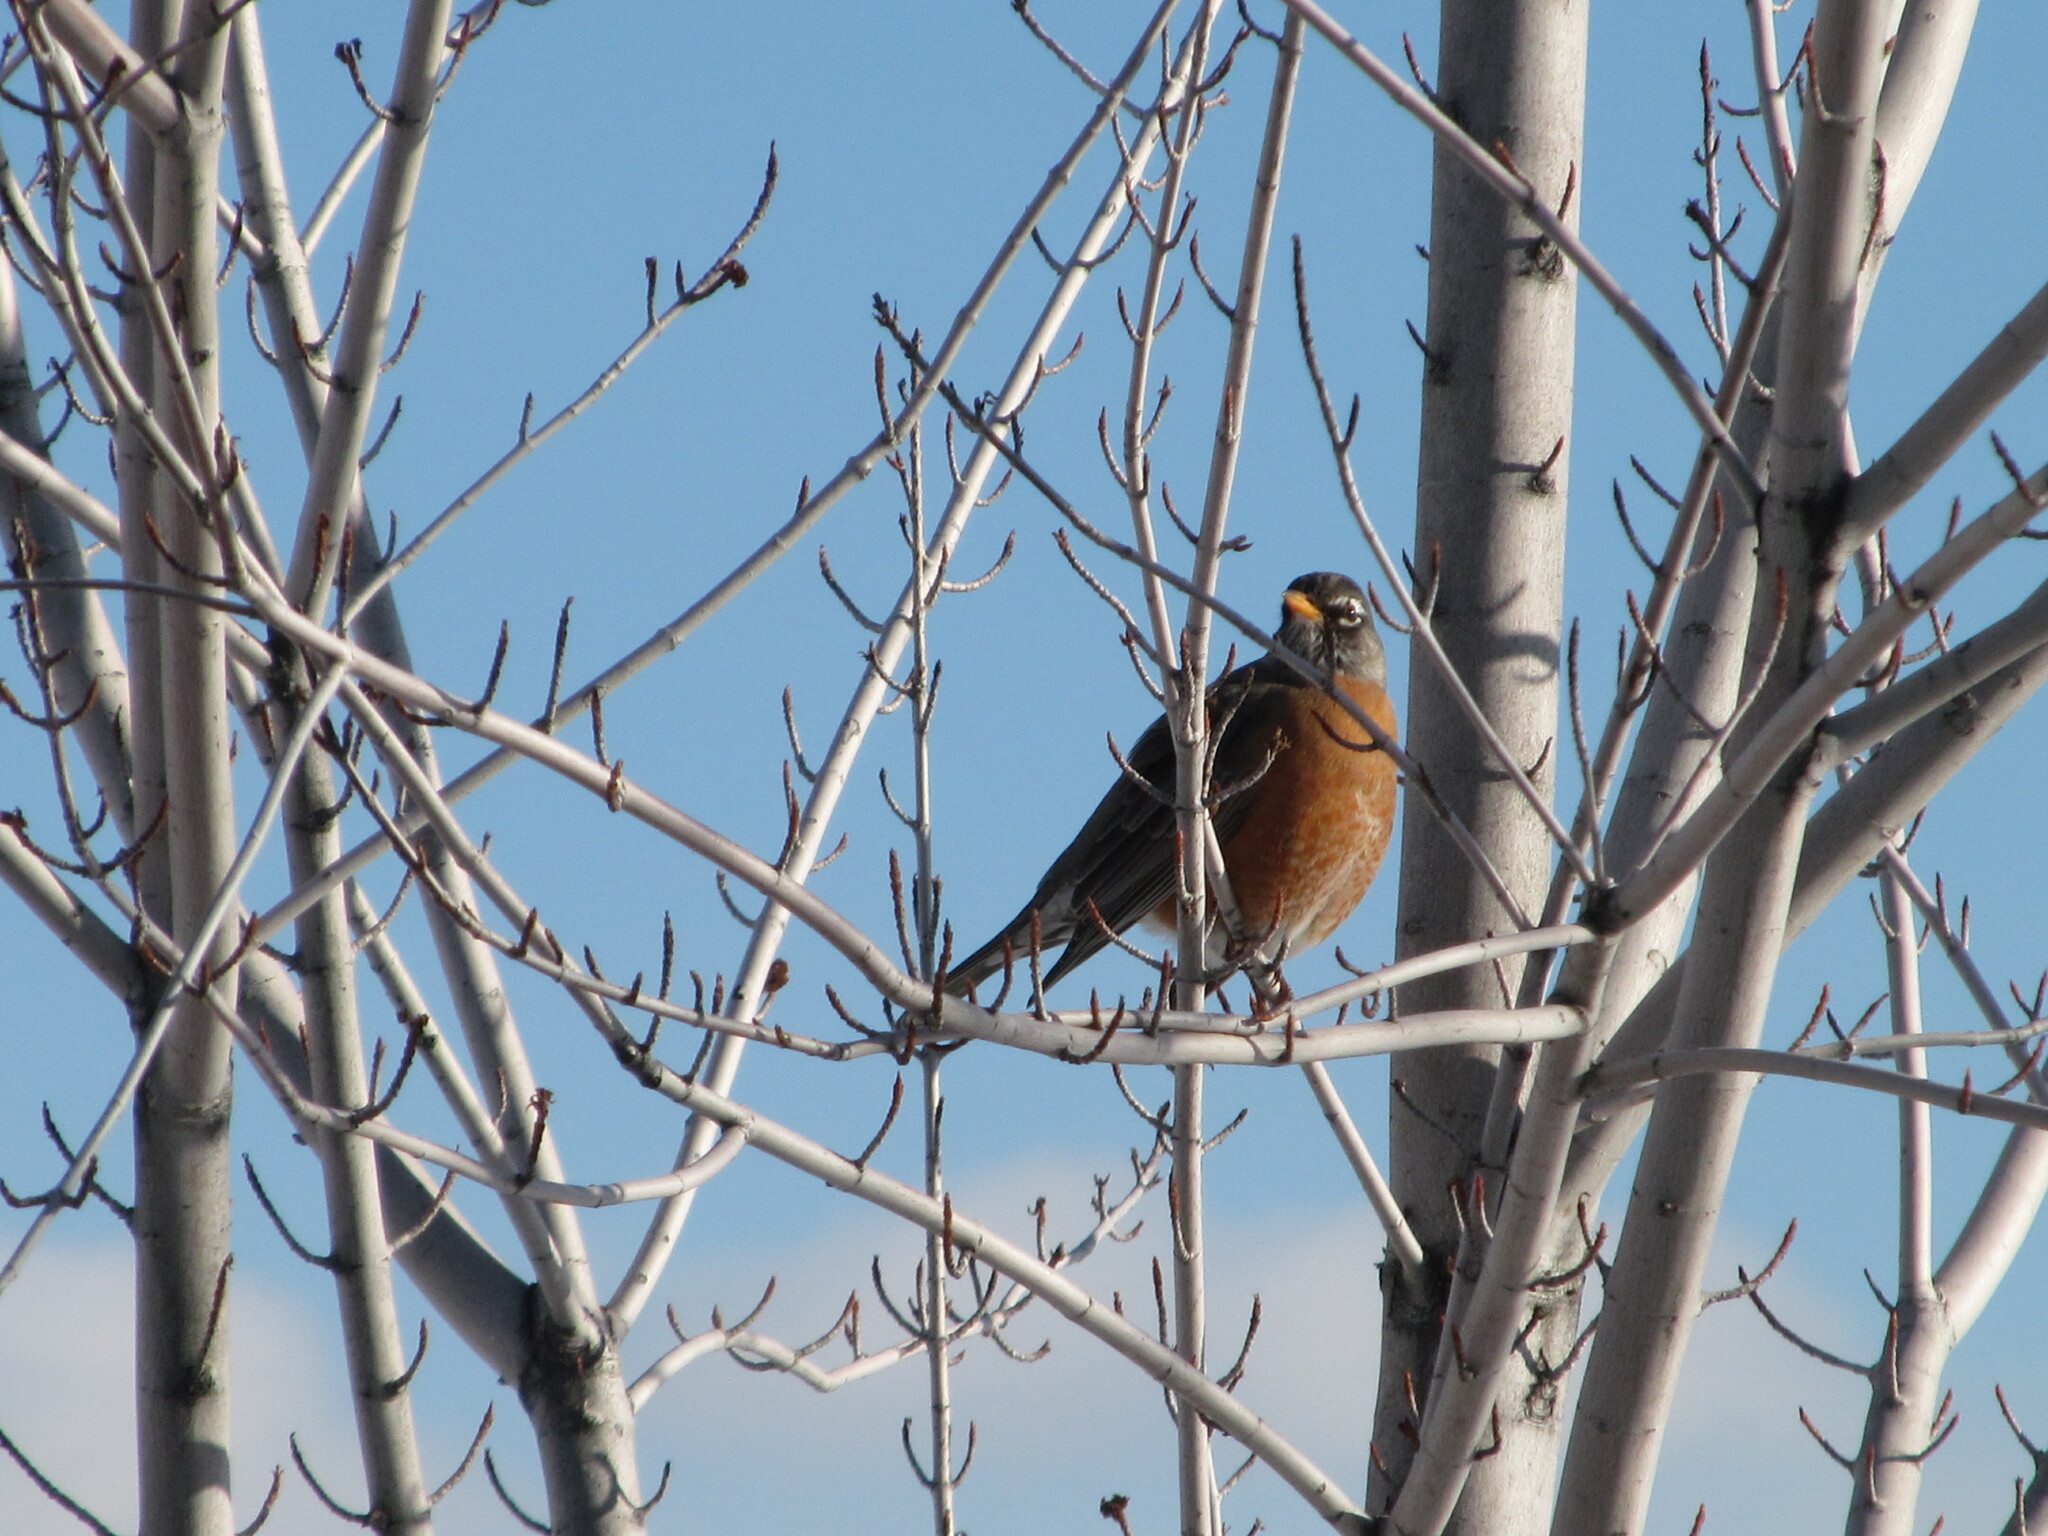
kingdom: Animalia
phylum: Chordata
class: Aves
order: Passeriformes
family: Turdidae
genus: Turdus
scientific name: Turdus migratorius
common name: American robin
